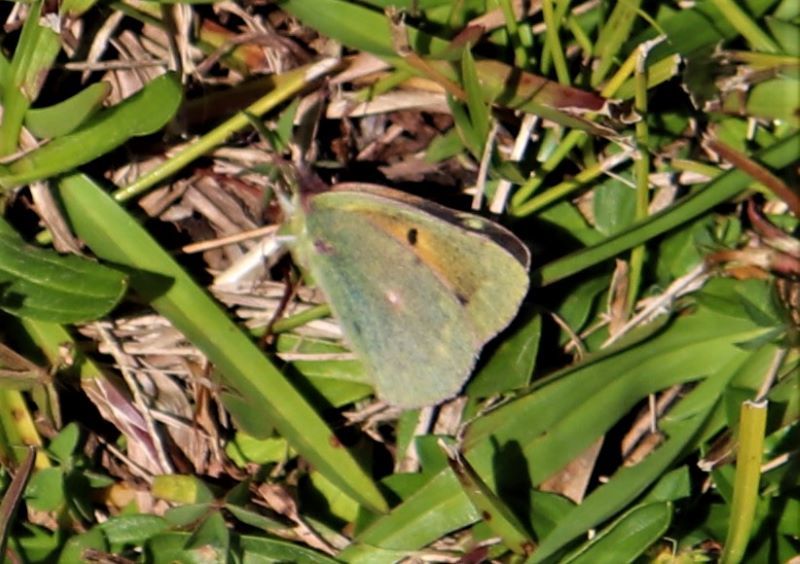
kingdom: Animalia
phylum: Arthropoda
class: Insecta
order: Lepidoptera
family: Pieridae
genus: Colias
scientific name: Colias electo
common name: African clouded yellow
